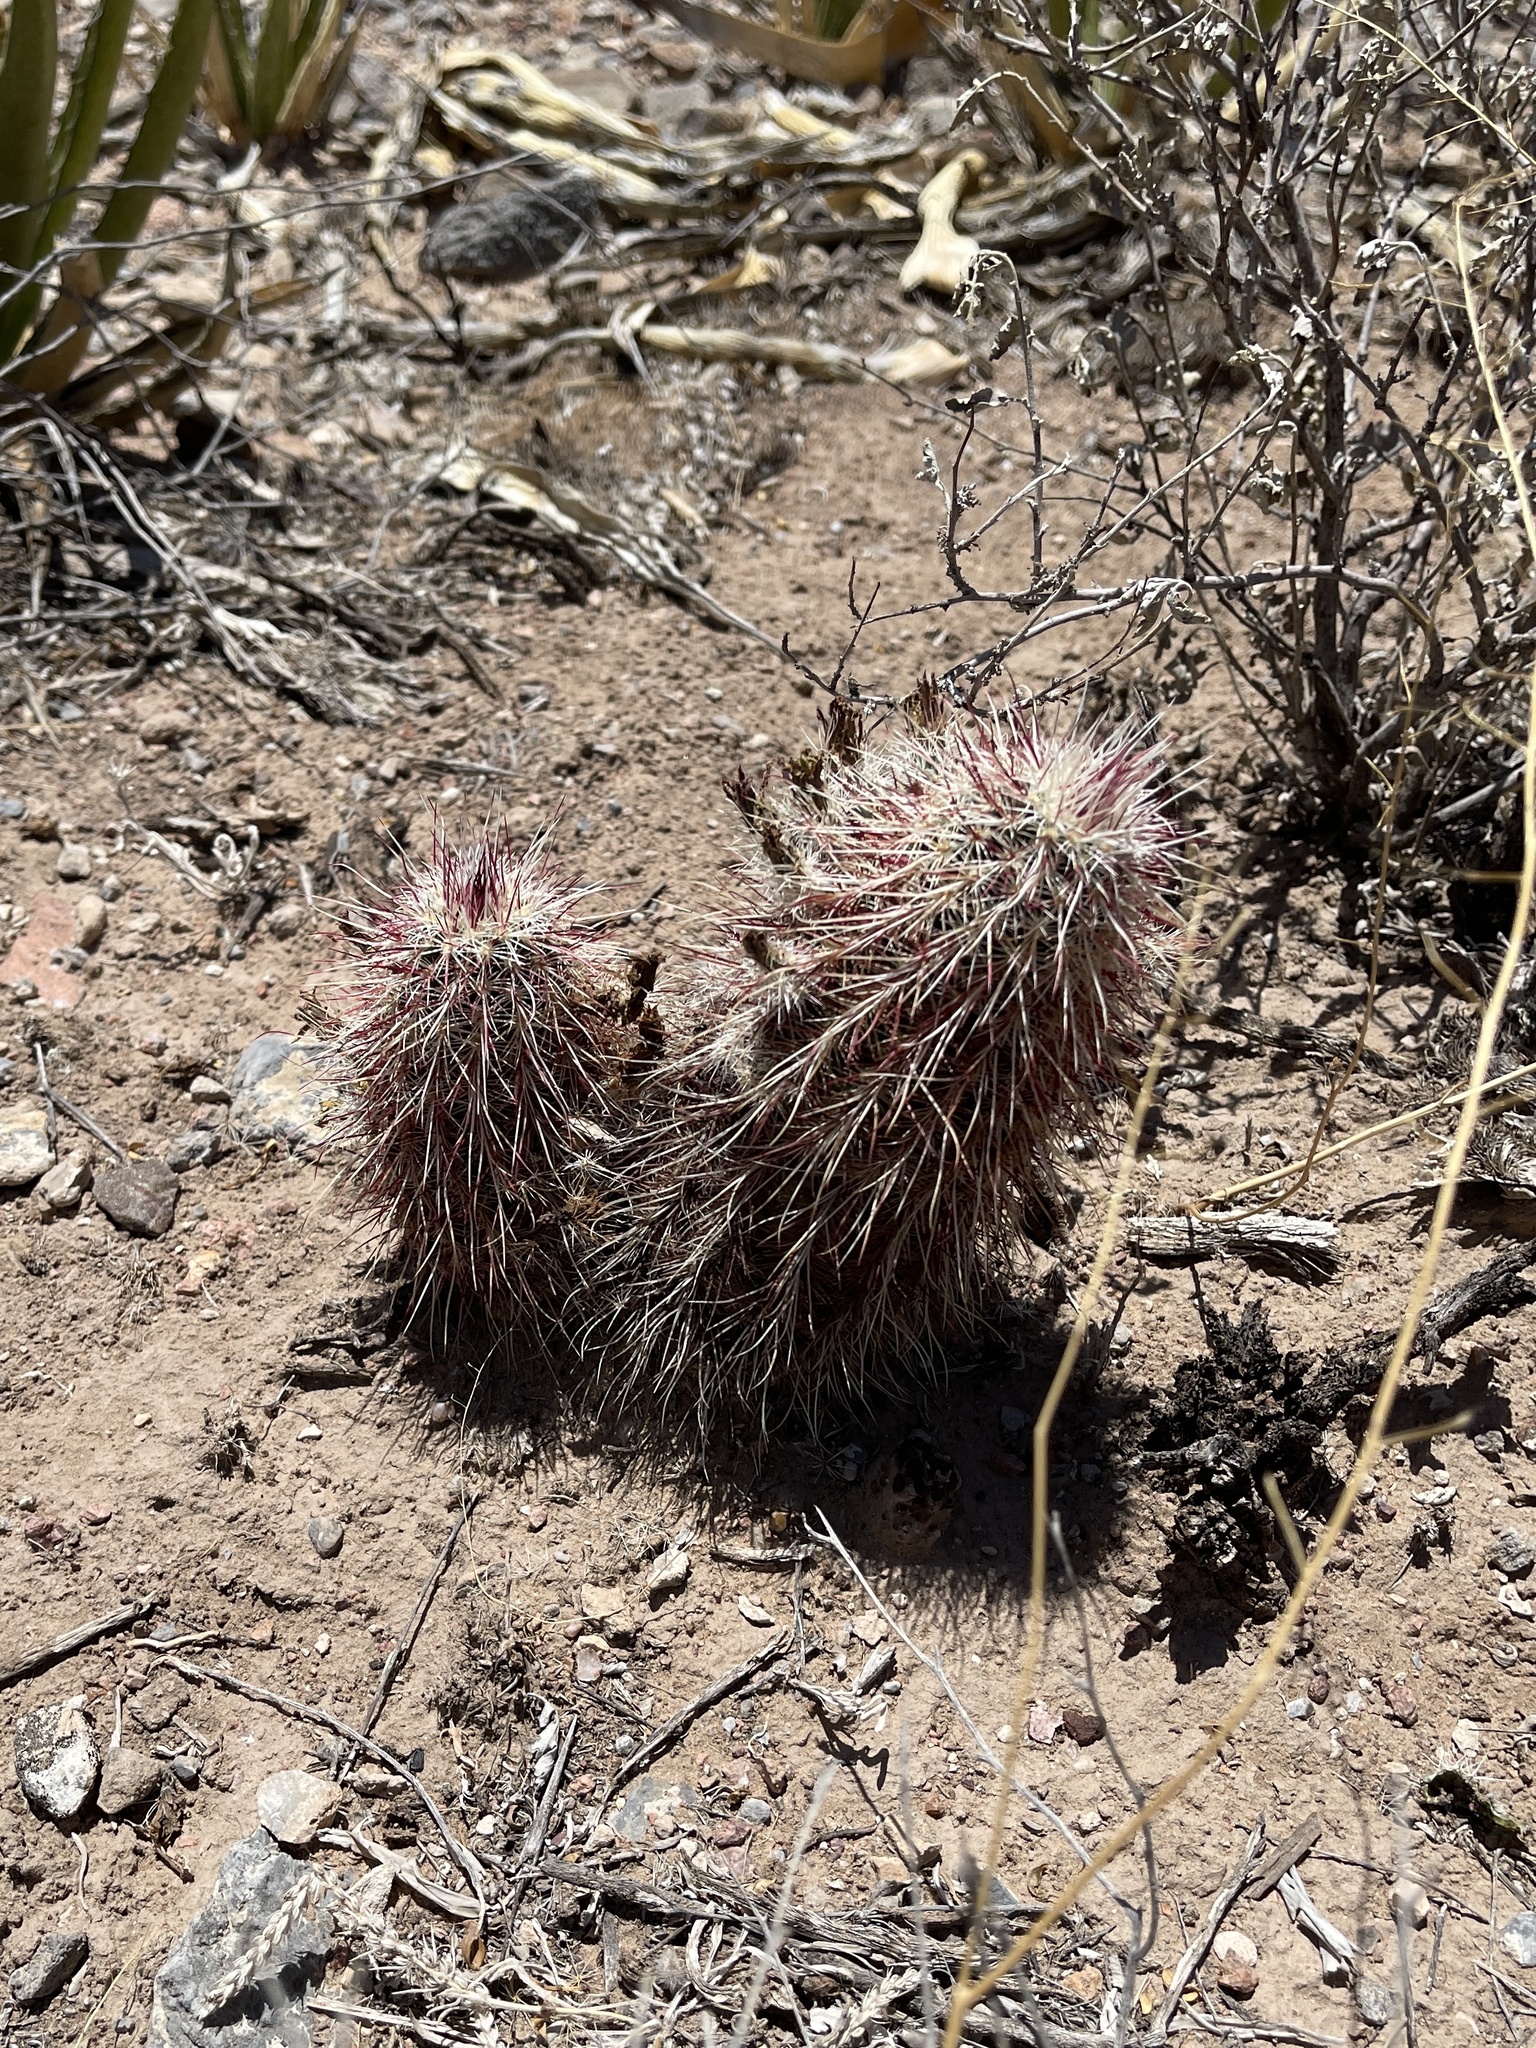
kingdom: Plantae
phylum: Tracheophyta
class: Magnoliopsida
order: Caryophyllales
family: Cactaceae
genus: Echinocereus
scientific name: Echinocereus viridiflorus
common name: Nylon hedgehog cactus
